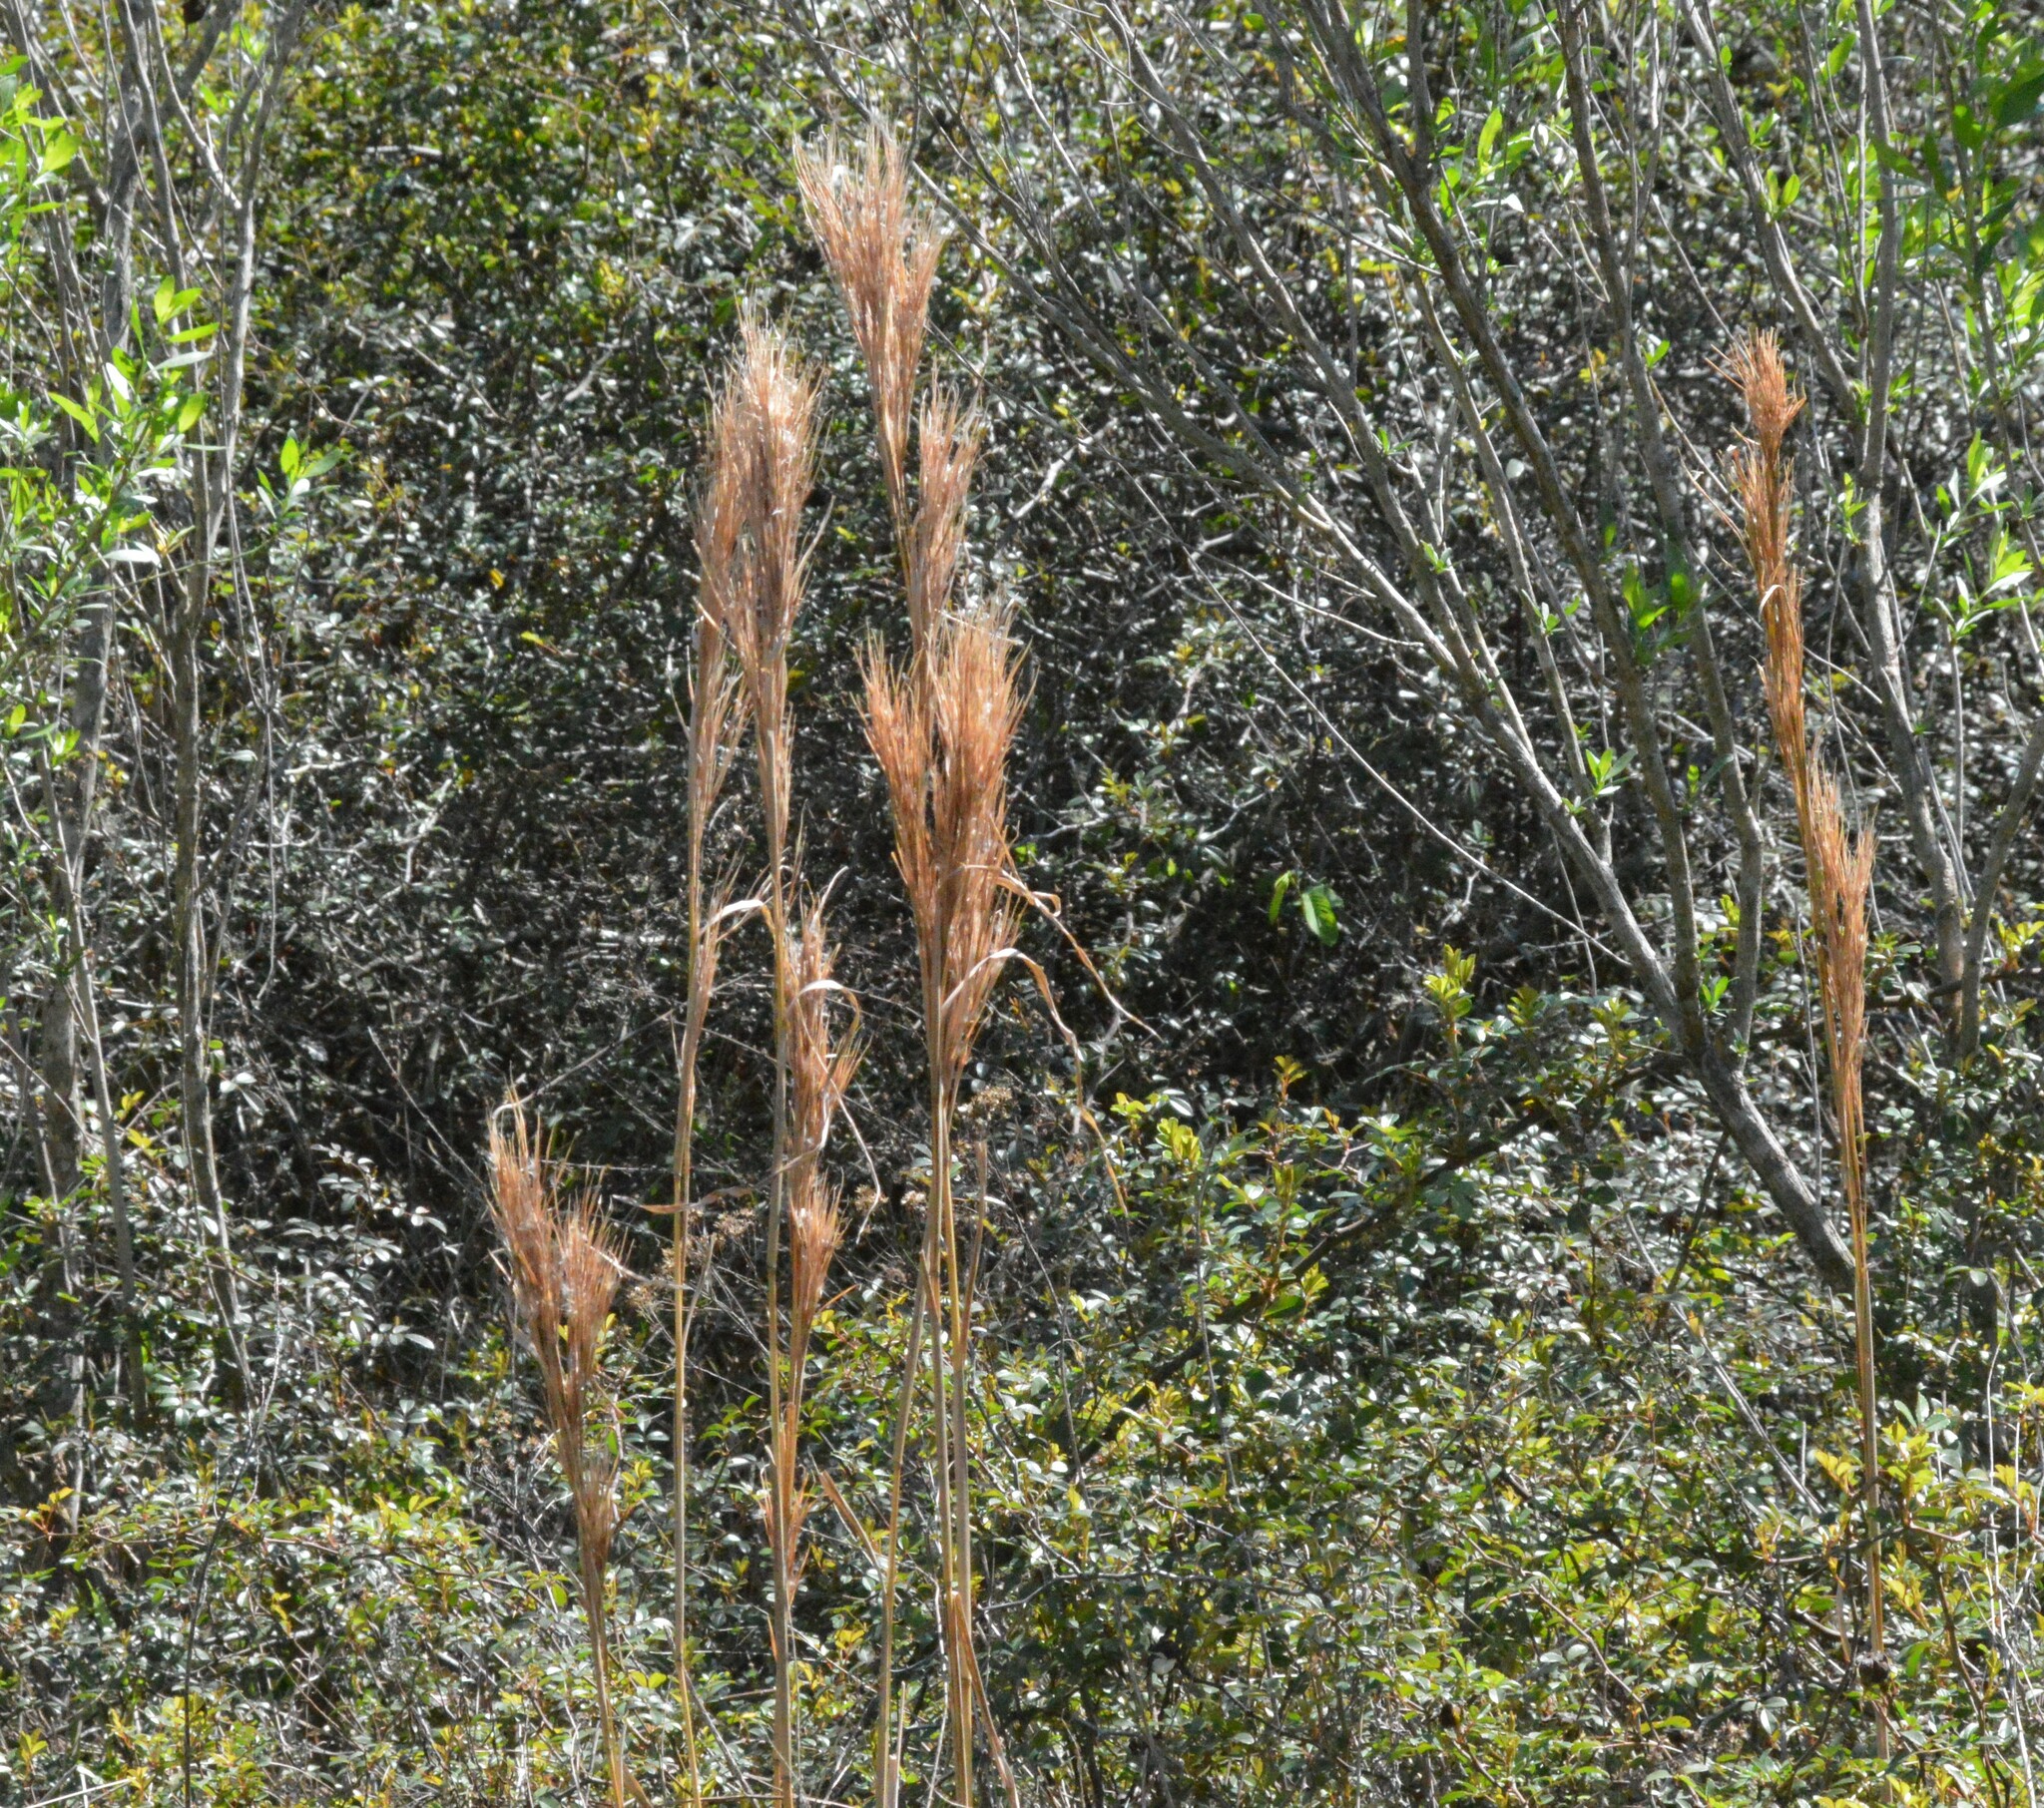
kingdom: Plantae
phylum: Tracheophyta
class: Liliopsida
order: Poales
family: Poaceae
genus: Andropogon
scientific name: Andropogon tenuispatheus
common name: Bushy bluestem
